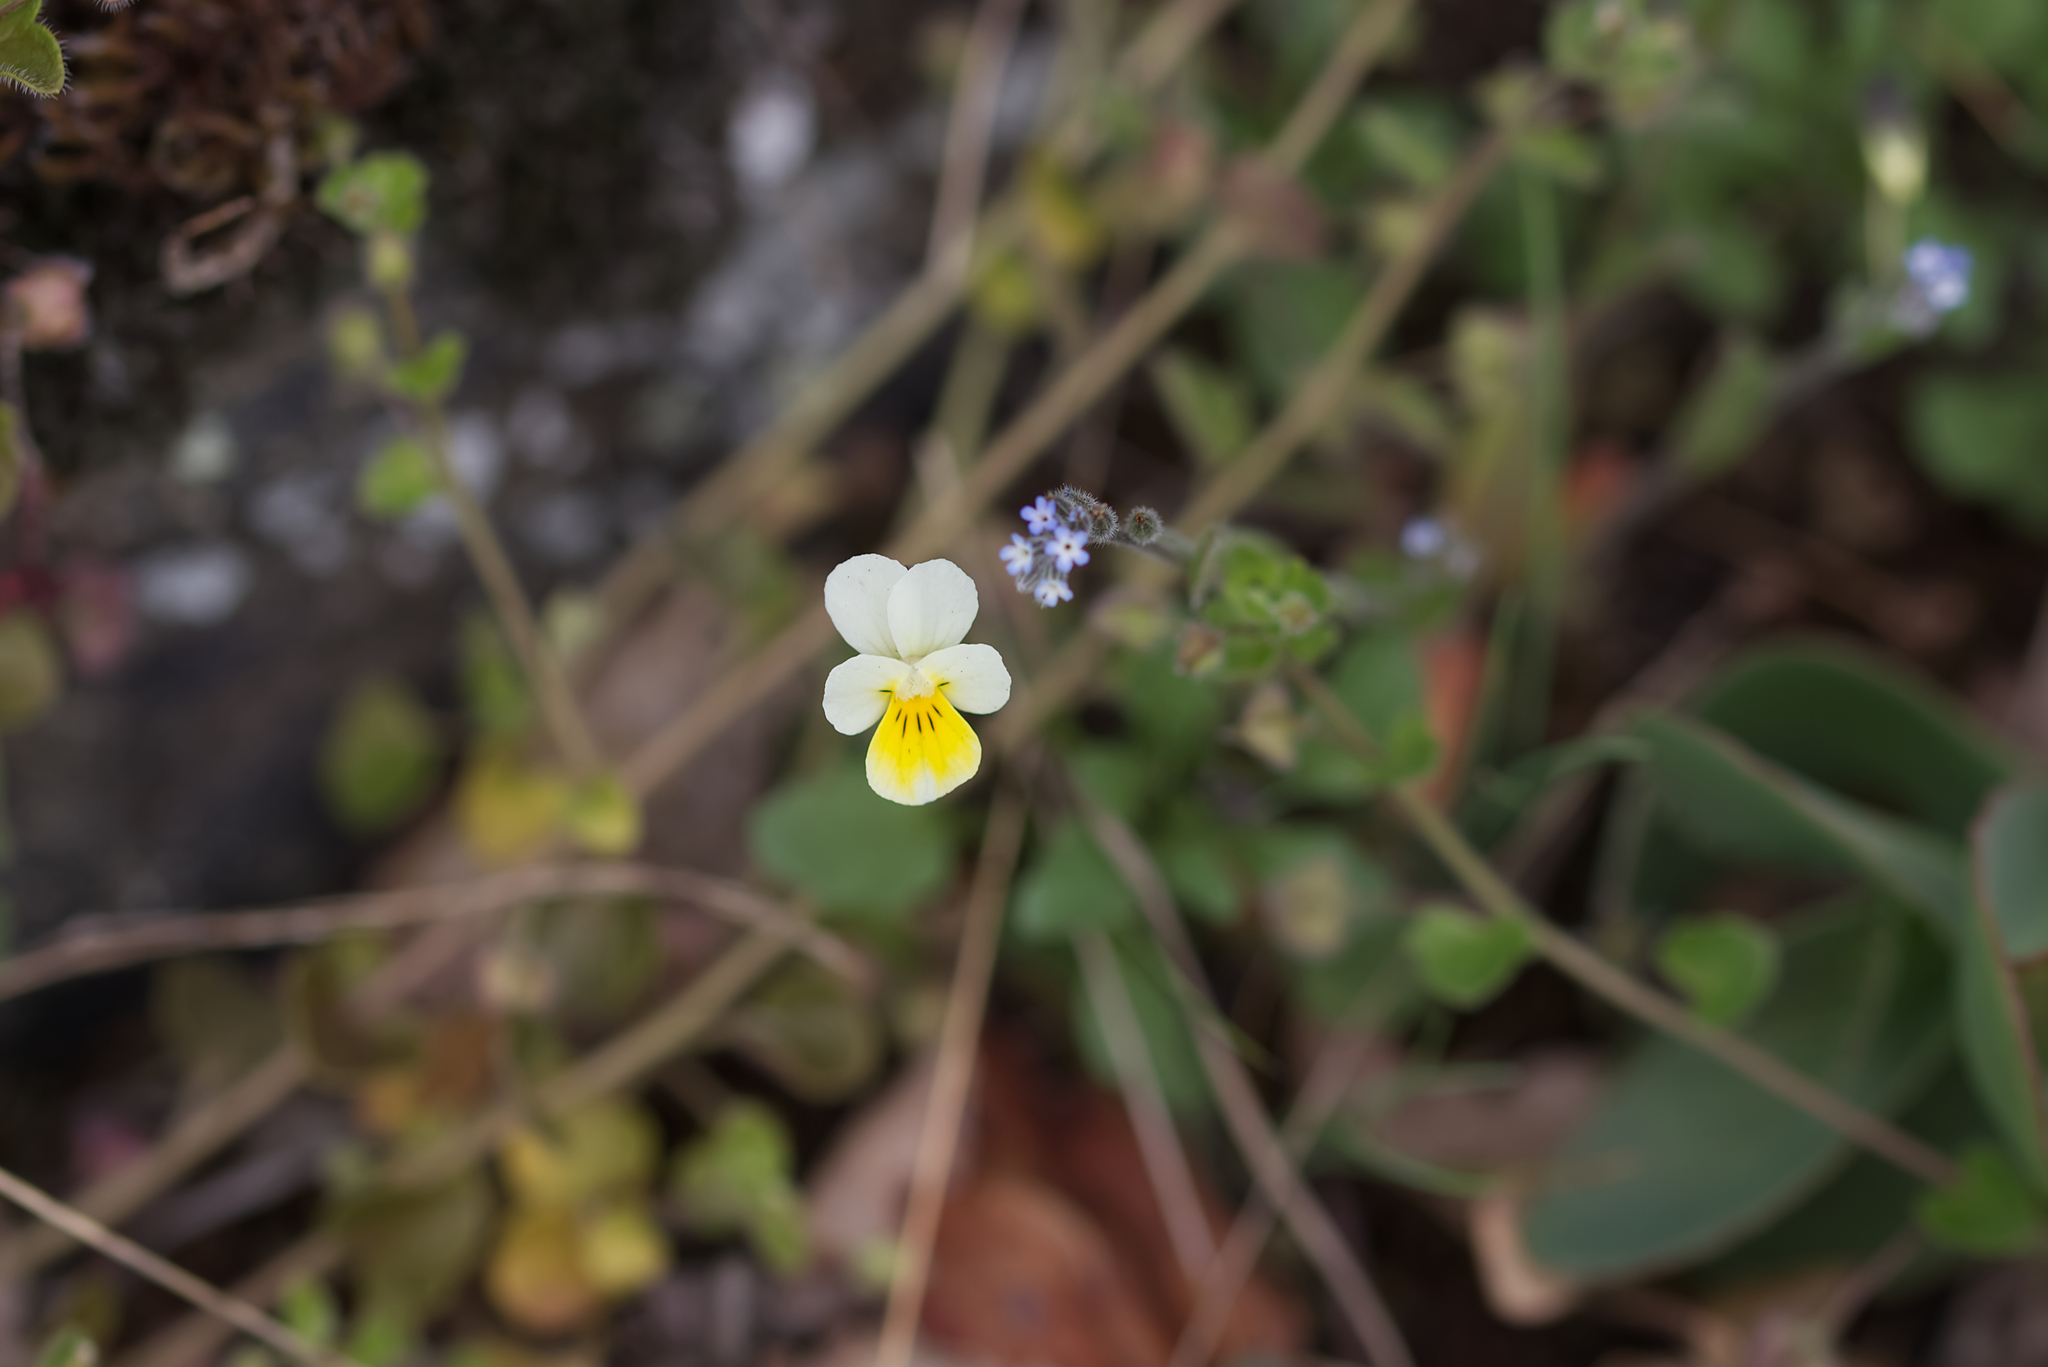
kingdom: Plantae
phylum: Tracheophyta
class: Magnoliopsida
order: Malpighiales
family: Violaceae
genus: Viola
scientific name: Viola arvensis
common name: Field pansy
